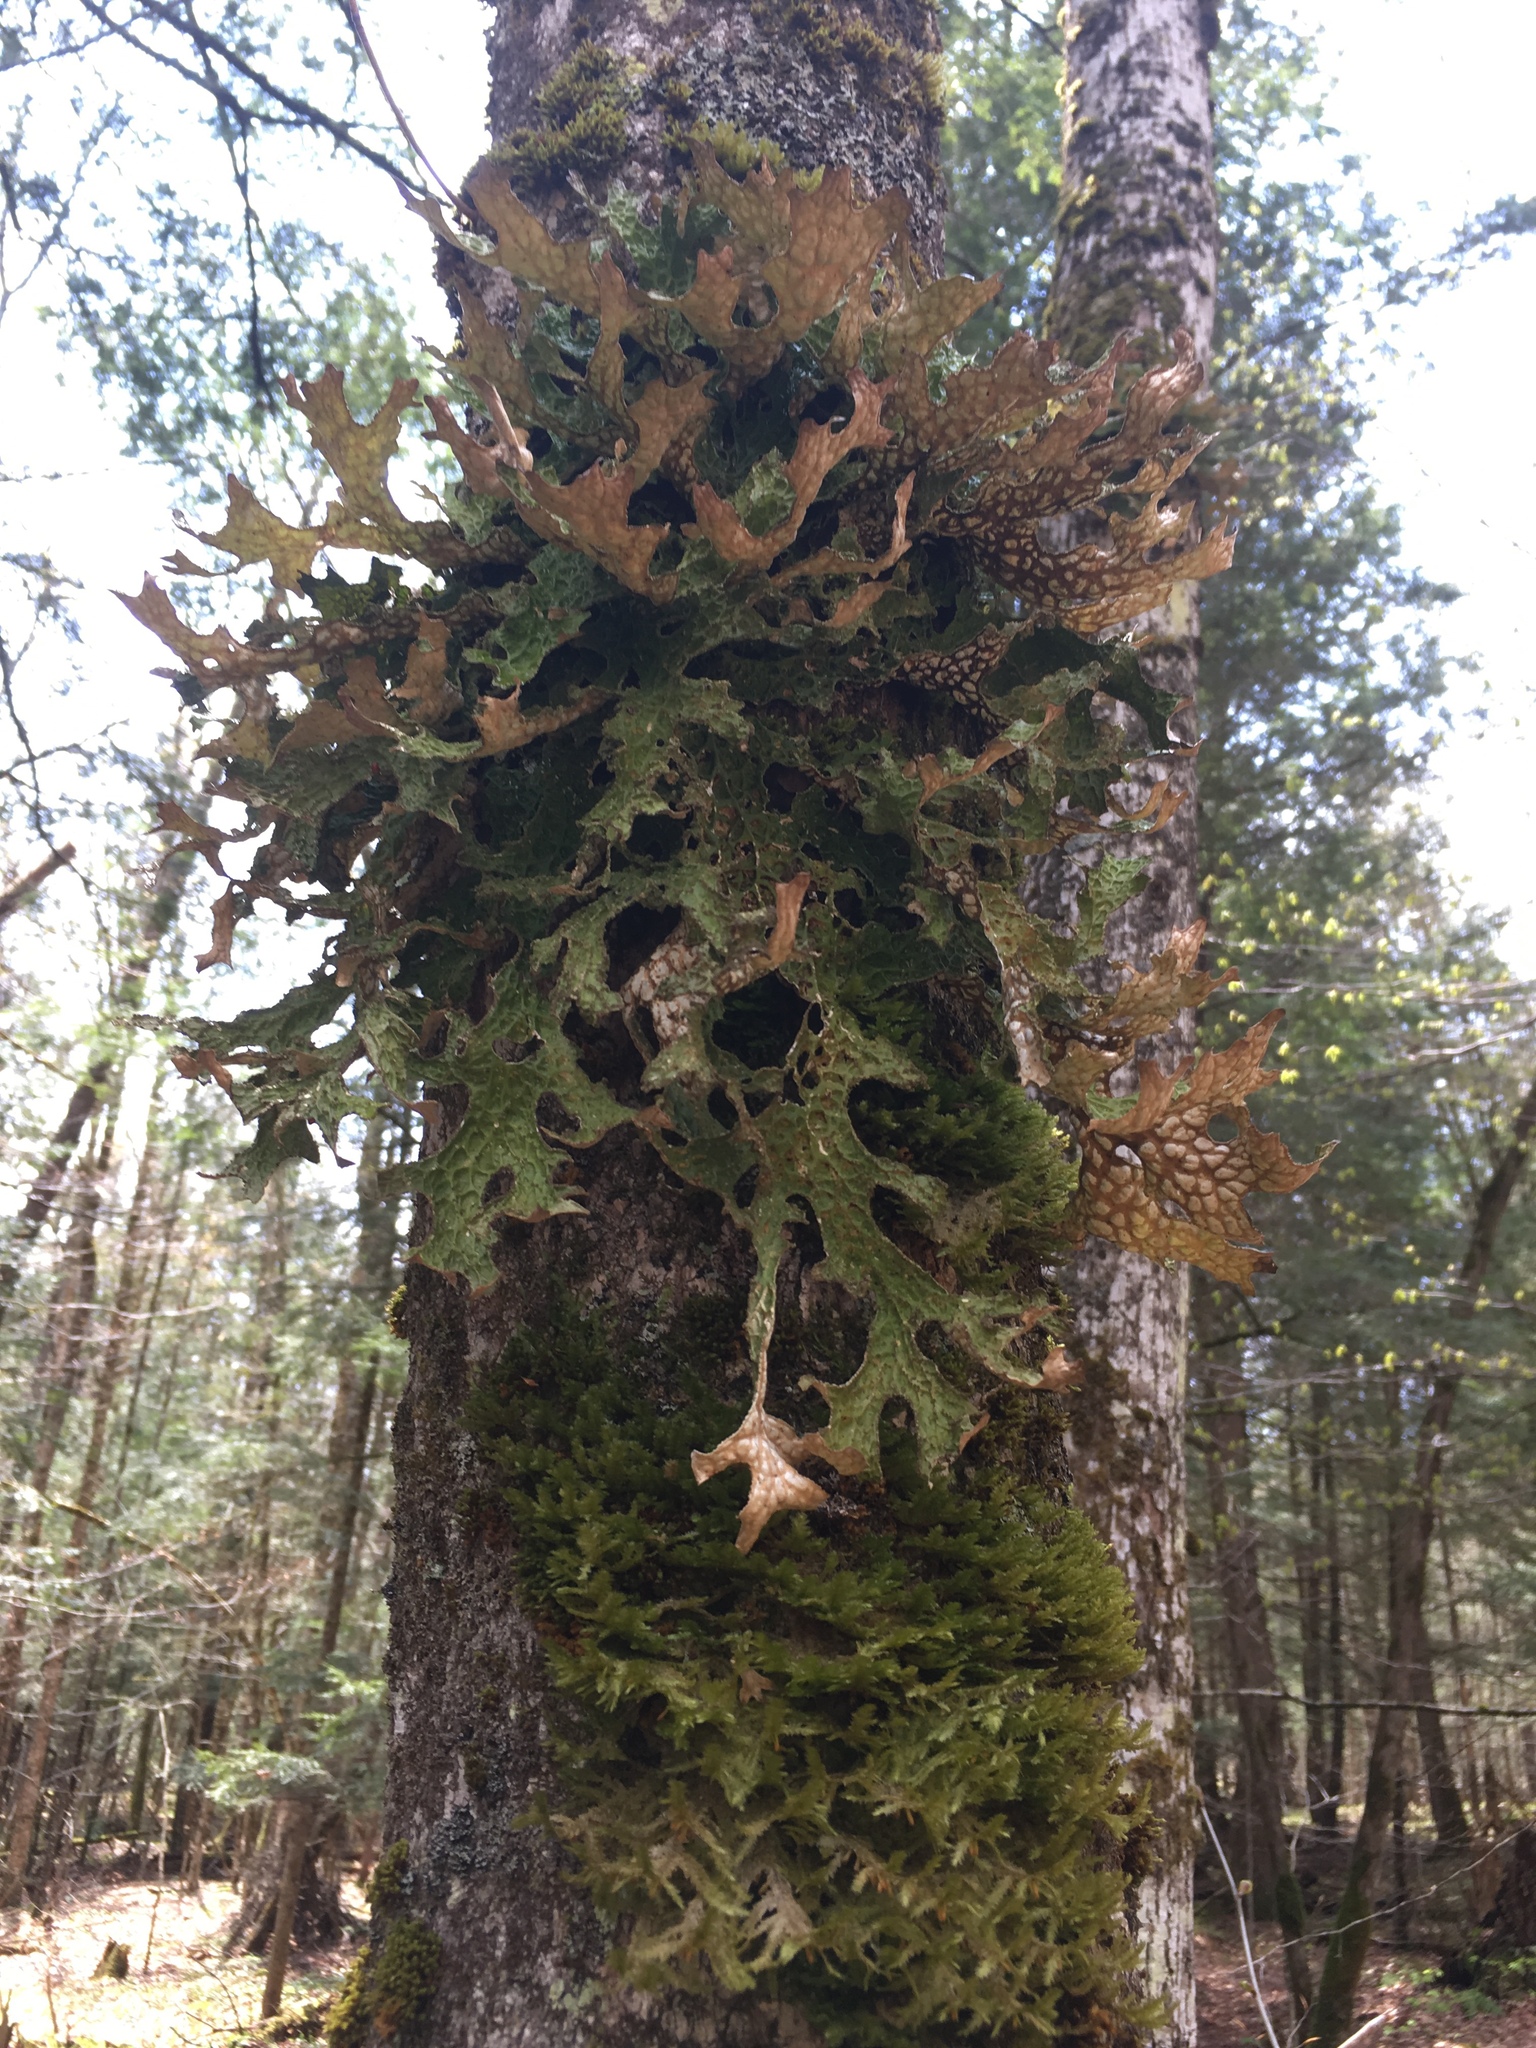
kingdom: Fungi
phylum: Ascomycota
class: Lecanoromycetes
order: Peltigerales
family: Lobariaceae
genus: Lobaria
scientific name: Lobaria pulmonaria
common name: Lungwort
